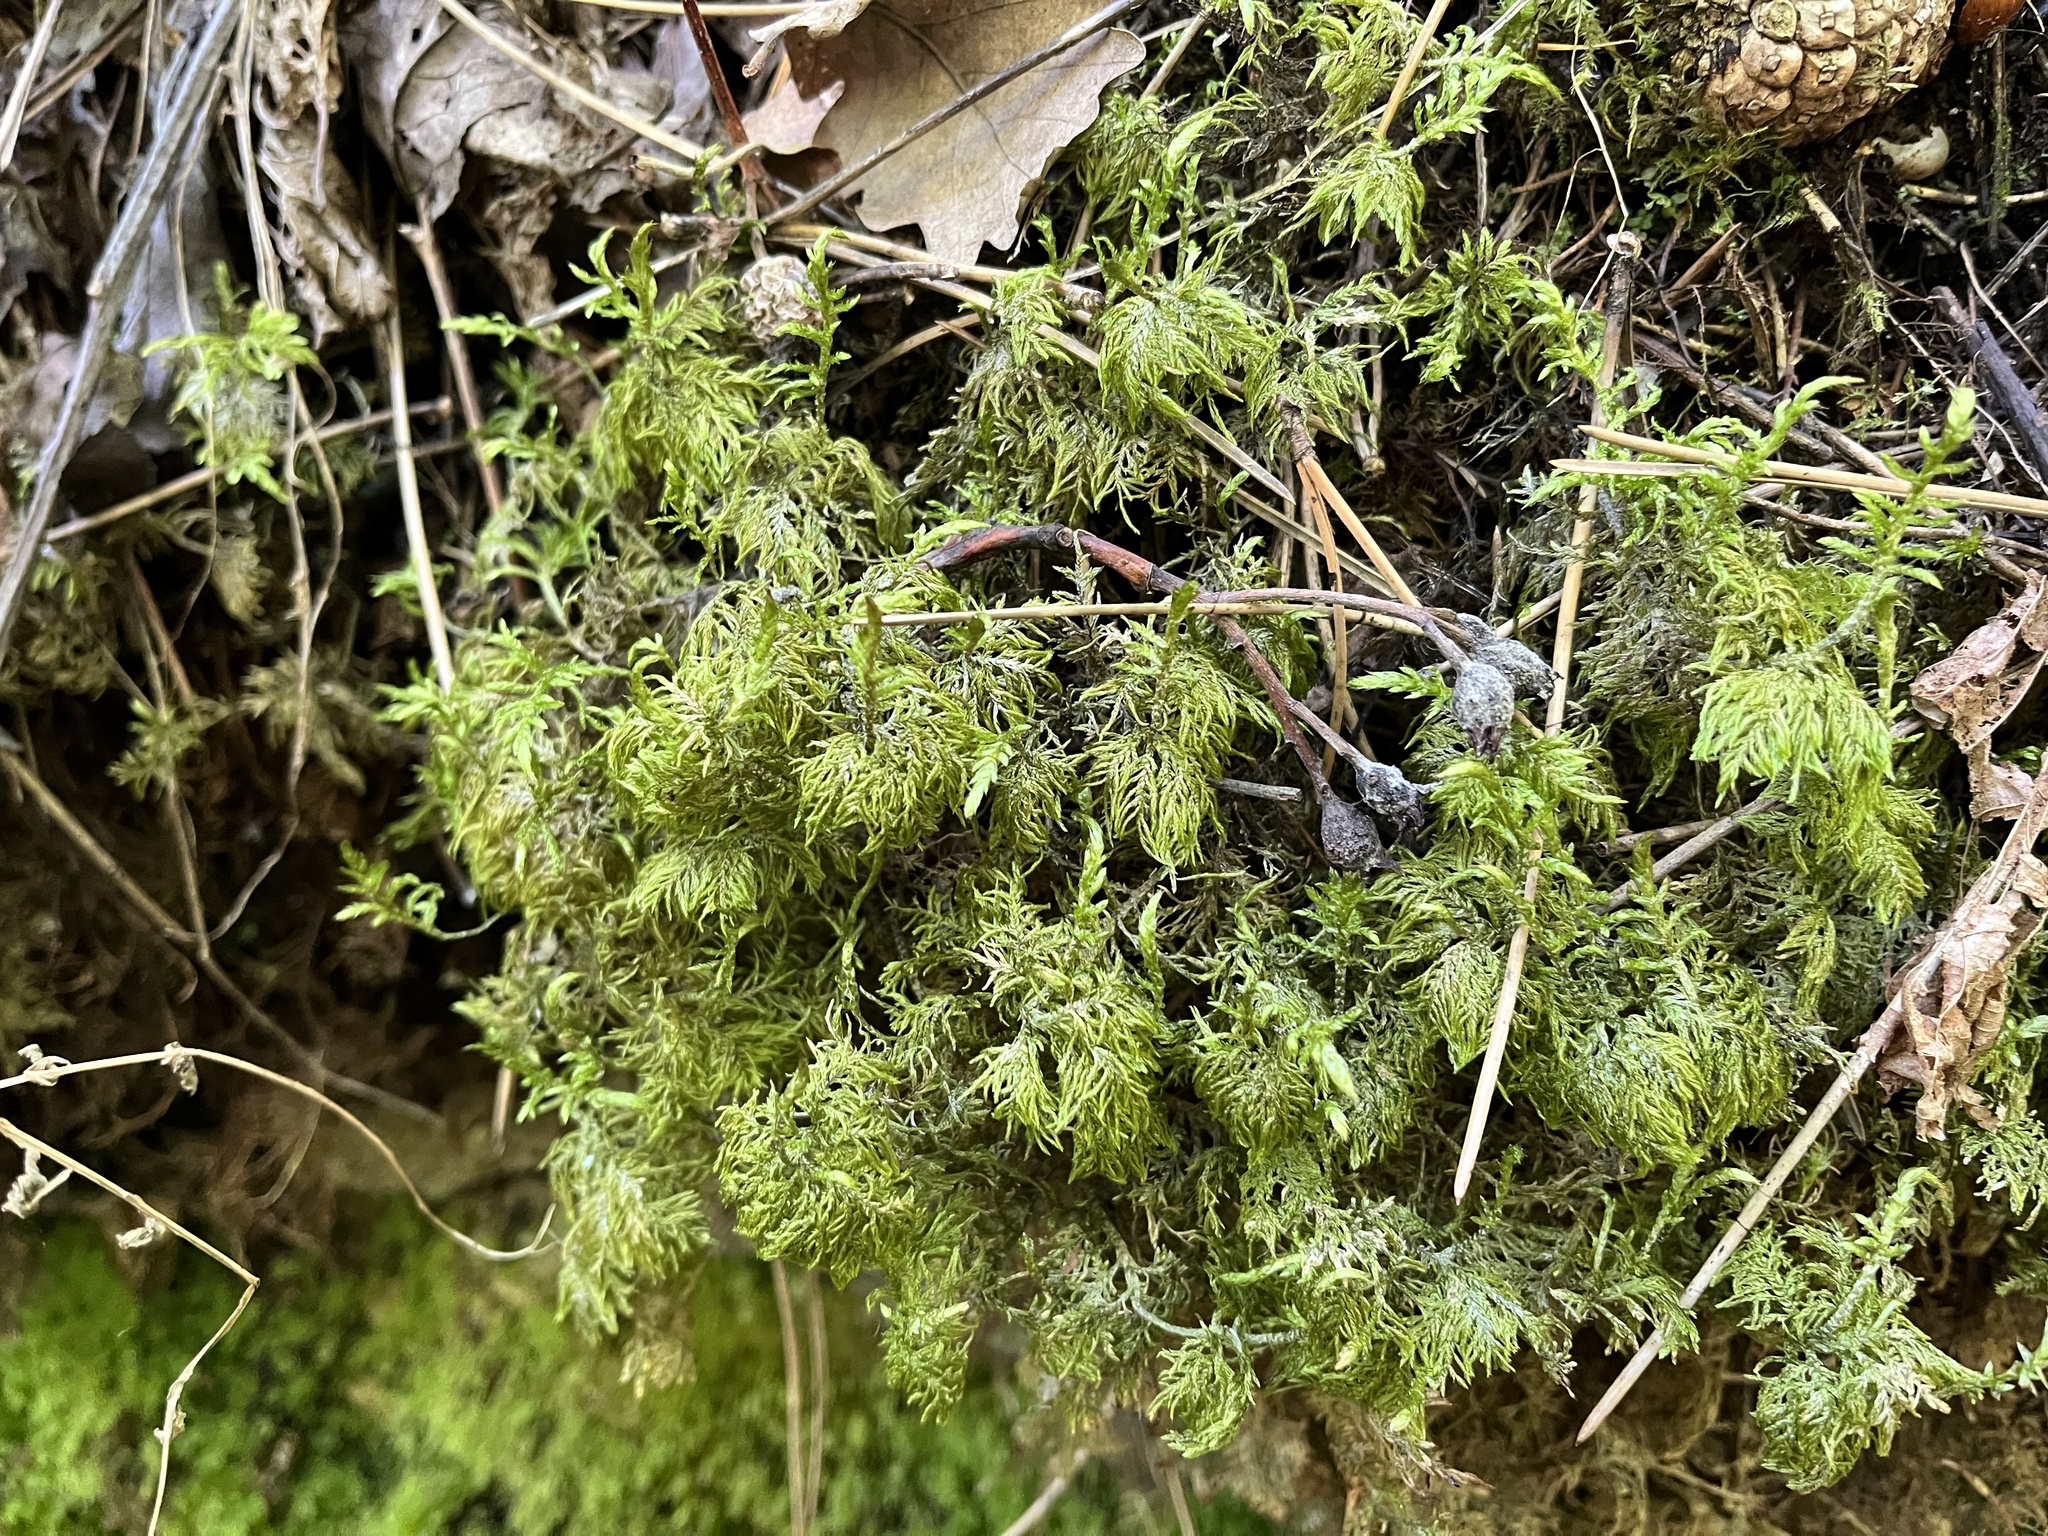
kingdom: Plantae
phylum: Bryophyta
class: Bryopsida
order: Hypnales
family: Hylocomiaceae
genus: Hylocomium
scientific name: Hylocomium splendens
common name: Stairstep moss
